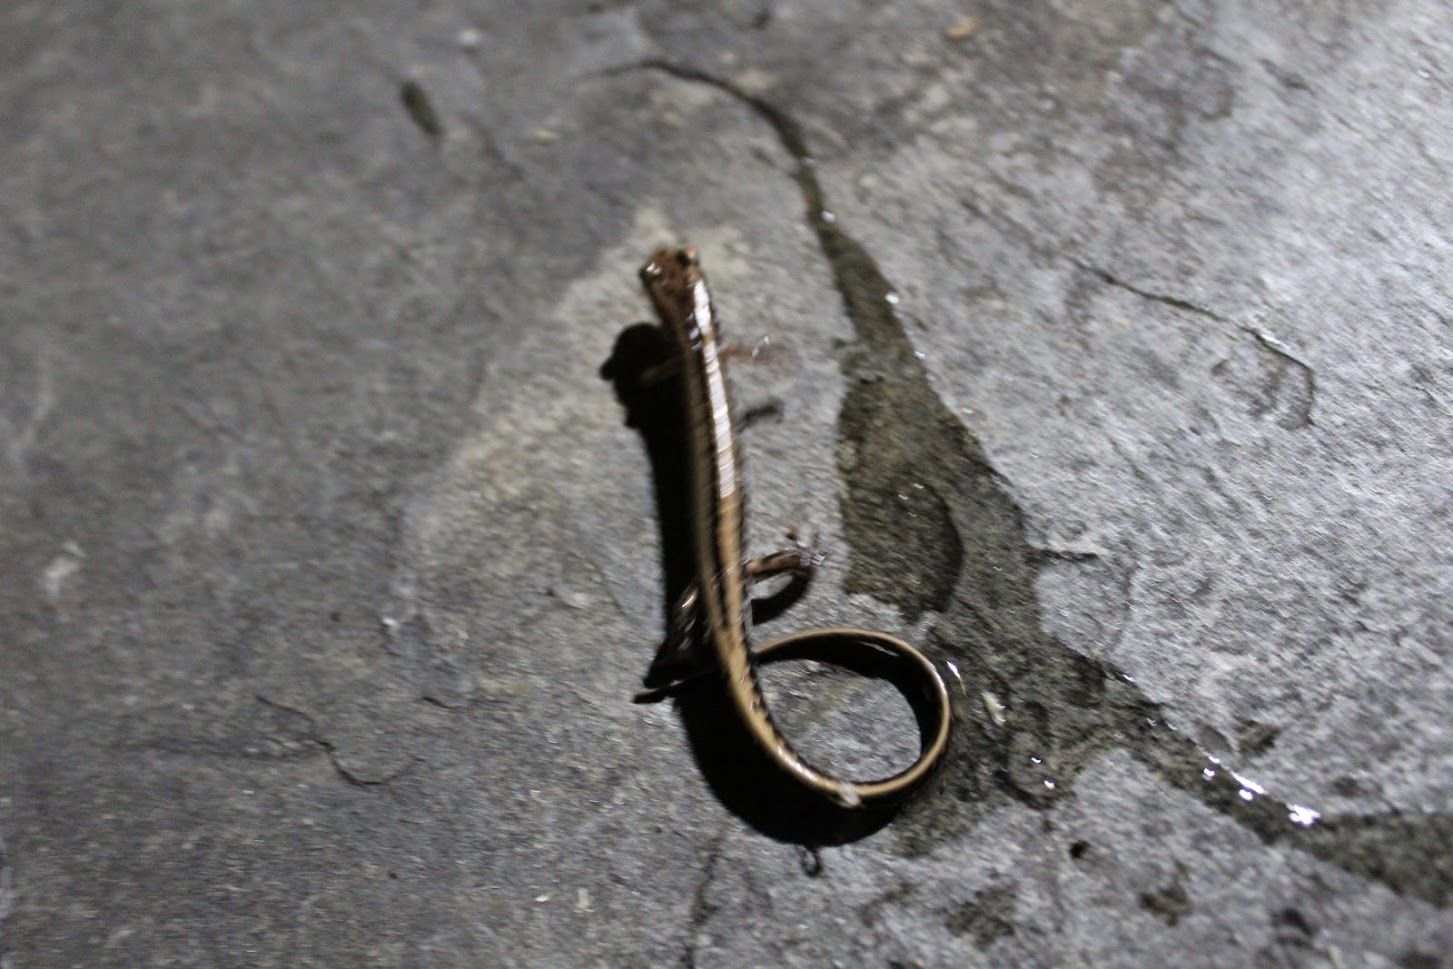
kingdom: Animalia
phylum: Chordata
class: Amphibia
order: Caudata
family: Plethodontidae
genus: Eurycea
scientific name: Eurycea guttolineata
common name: Three-lined salamander
